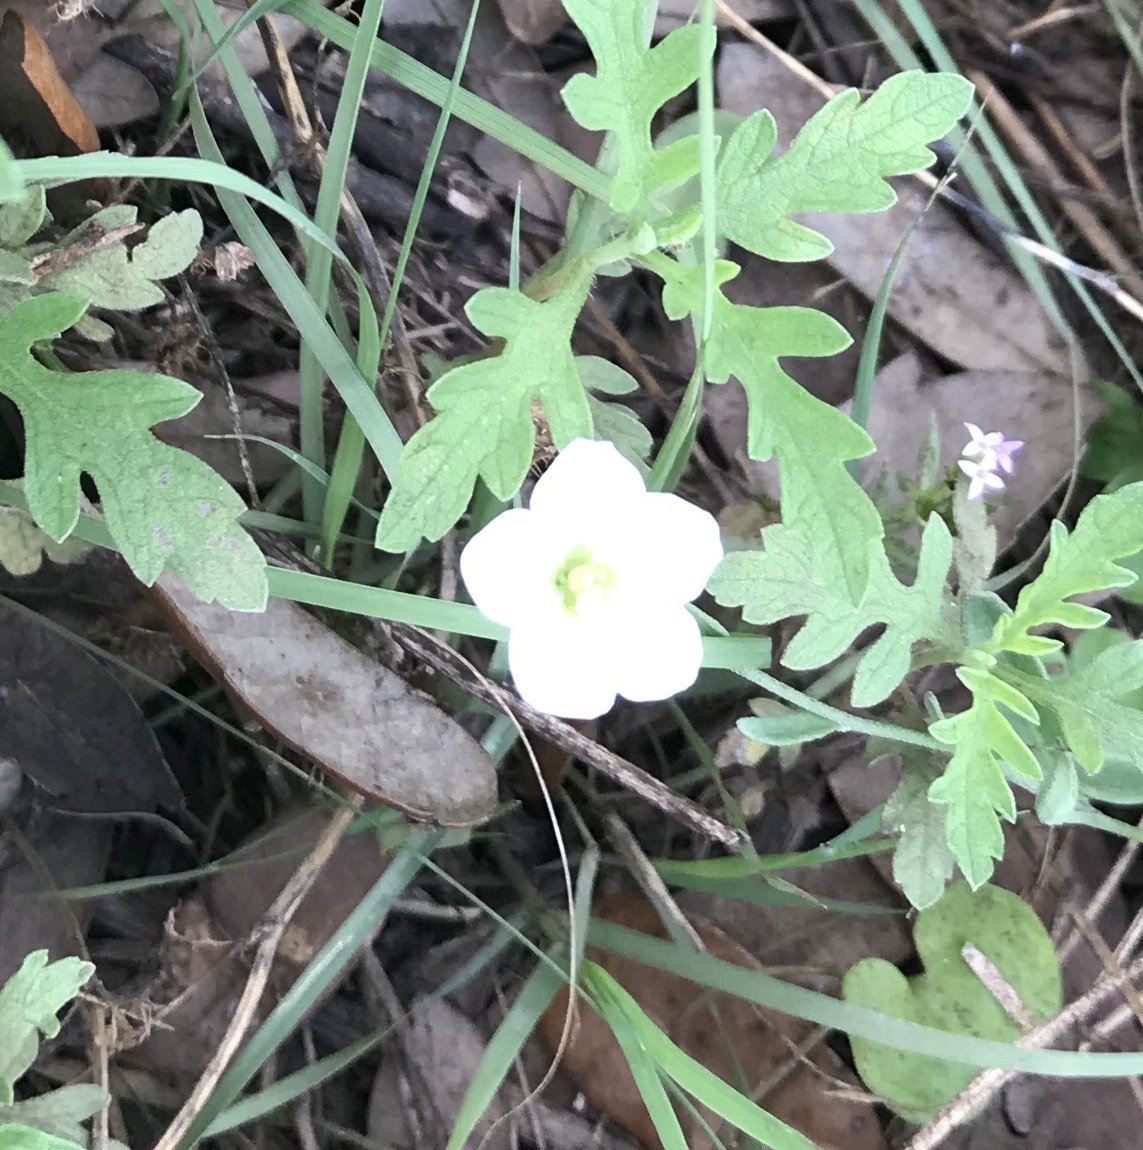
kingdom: Plantae
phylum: Tracheophyta
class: Magnoliopsida
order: Solanales
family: Solanaceae
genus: Salpiglossis
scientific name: Salpiglossis erecta
